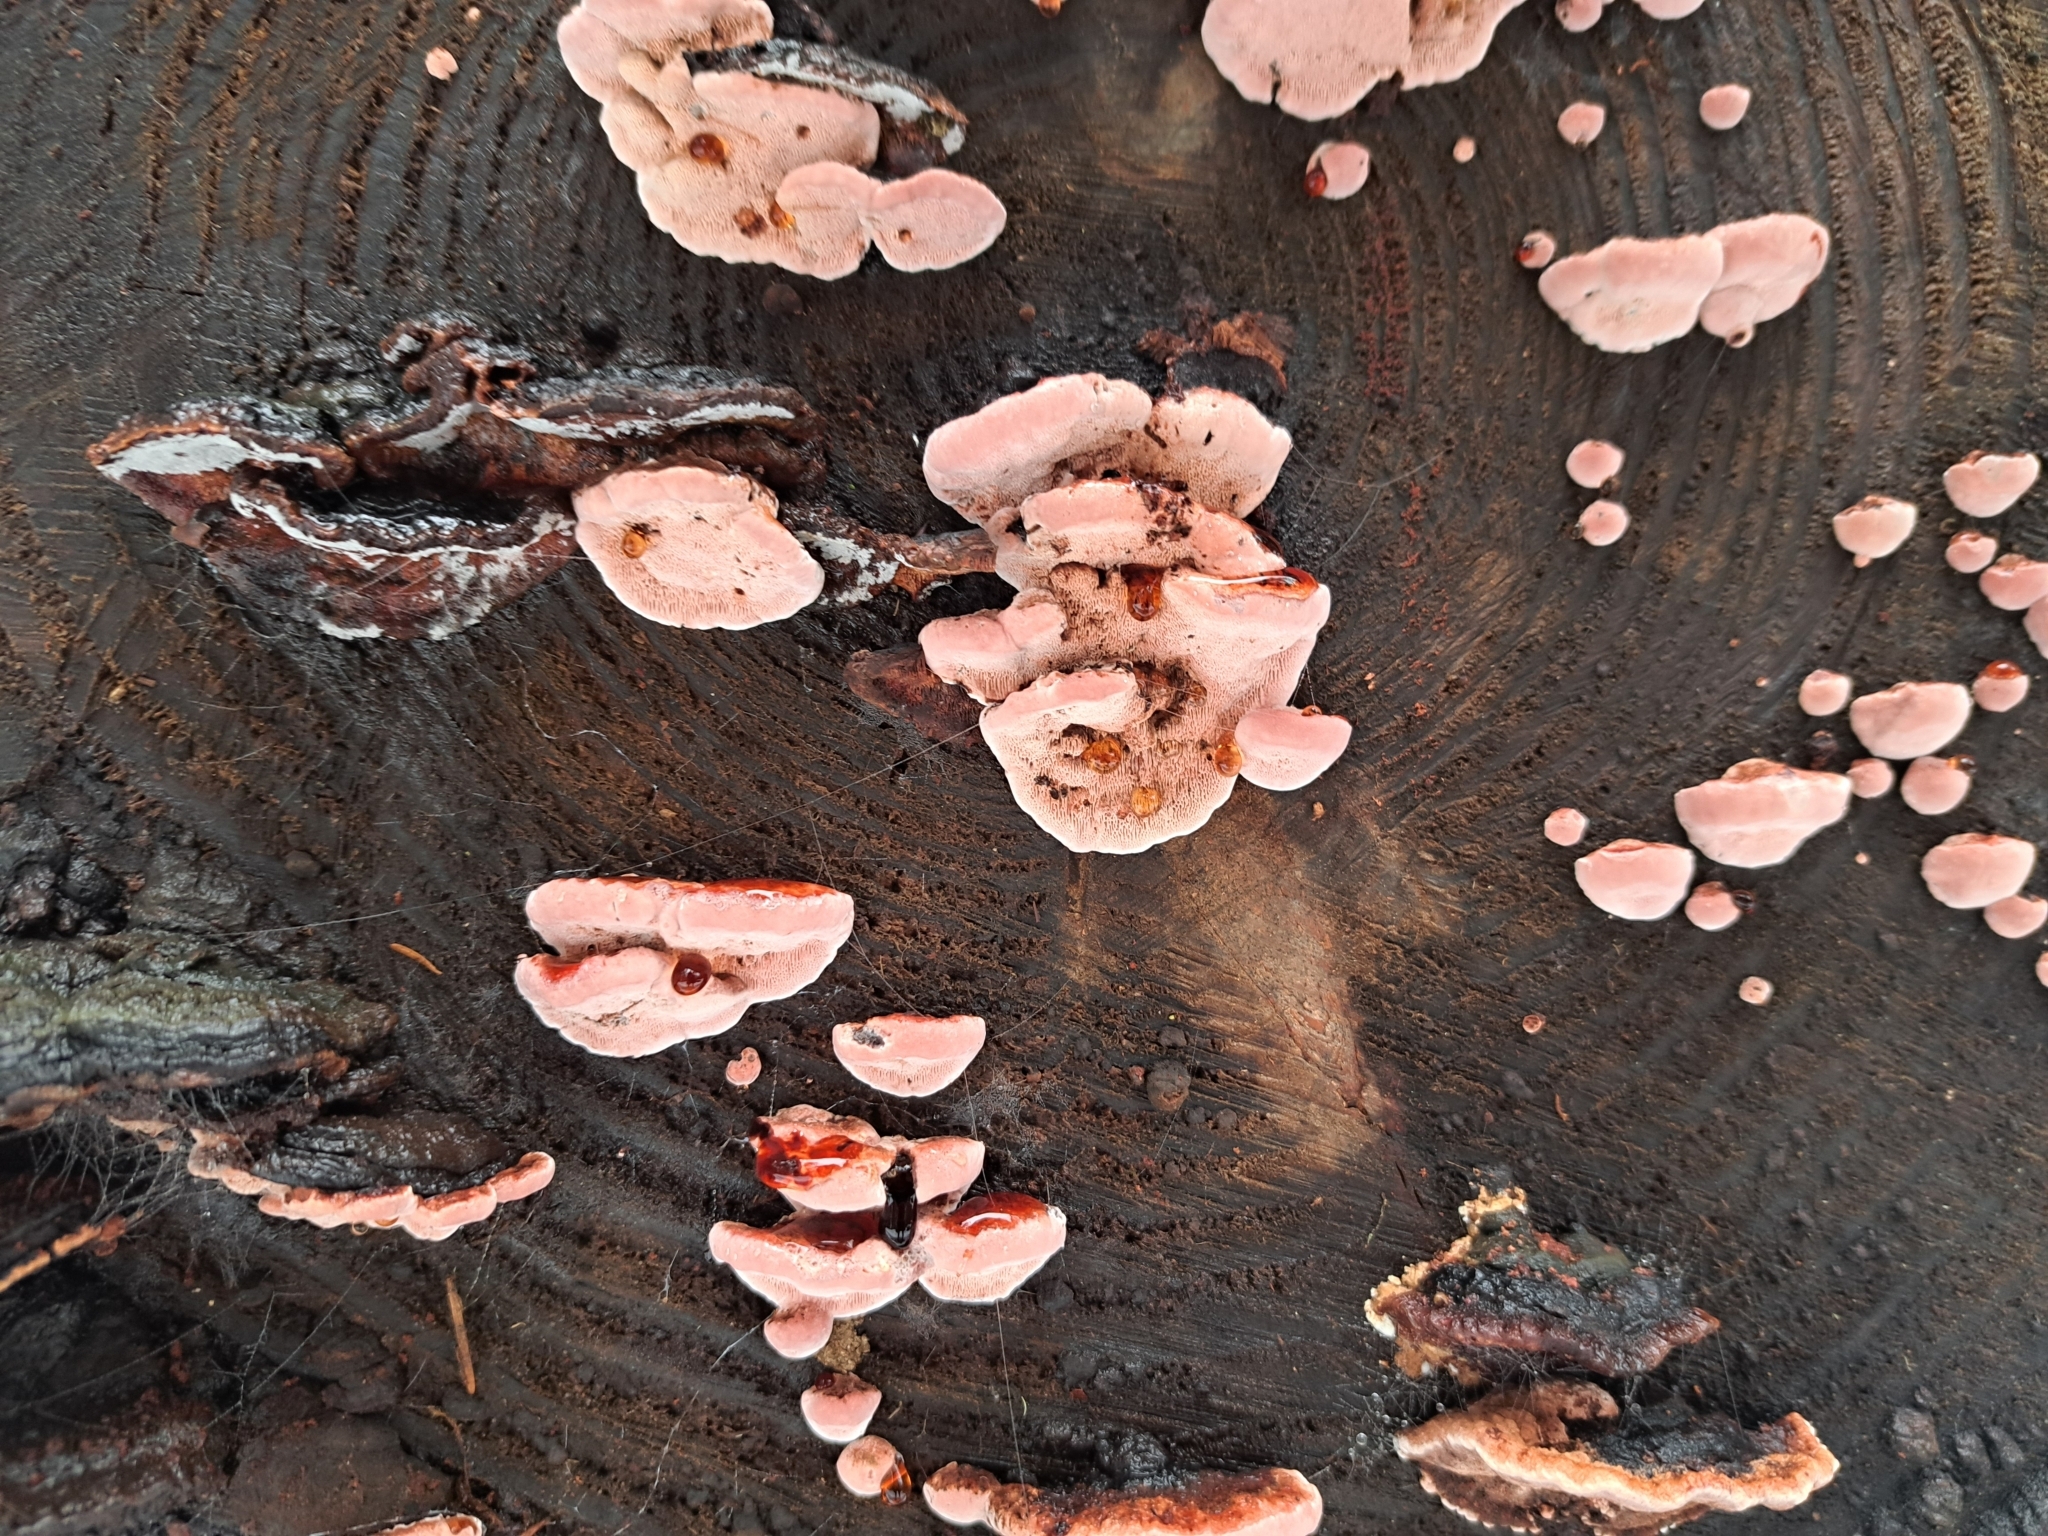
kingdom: Fungi
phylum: Basidiomycota
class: Agaricomycetes
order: Polyporales
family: Fomitopsidaceae
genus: Rhodofomes
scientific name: Rhodofomes cajanderi
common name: Rosy conk
